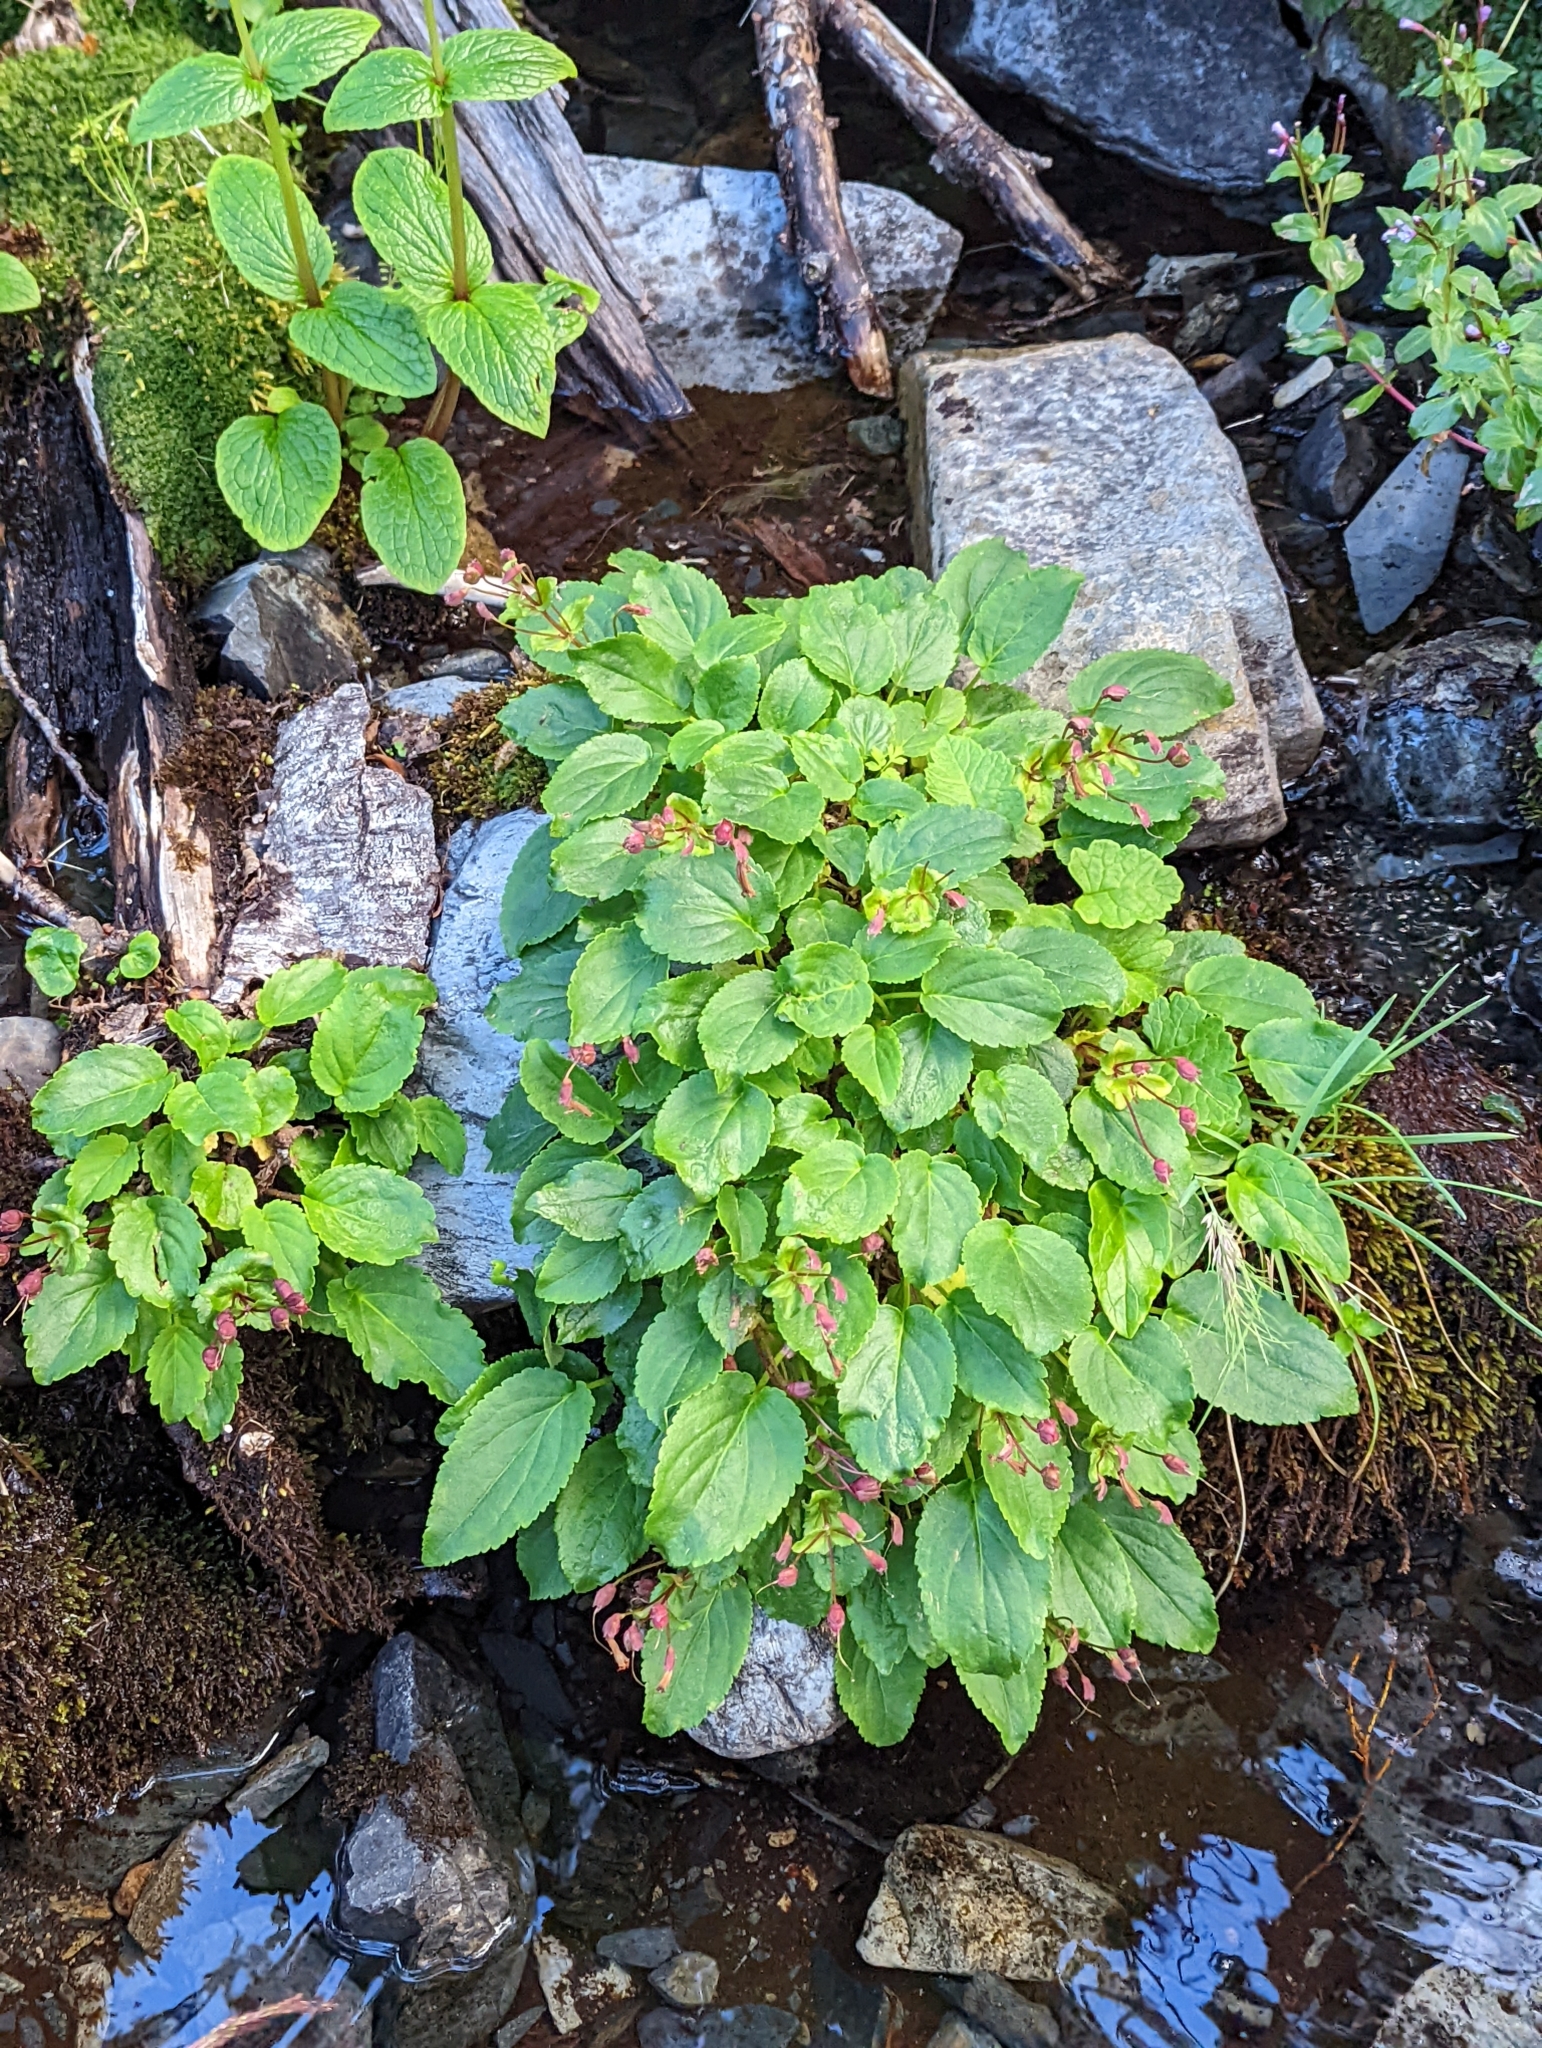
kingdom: Plantae
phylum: Tracheophyta
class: Magnoliopsida
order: Lamiales
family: Plantaginaceae
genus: Ourisia
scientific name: Ourisia ruellioides
